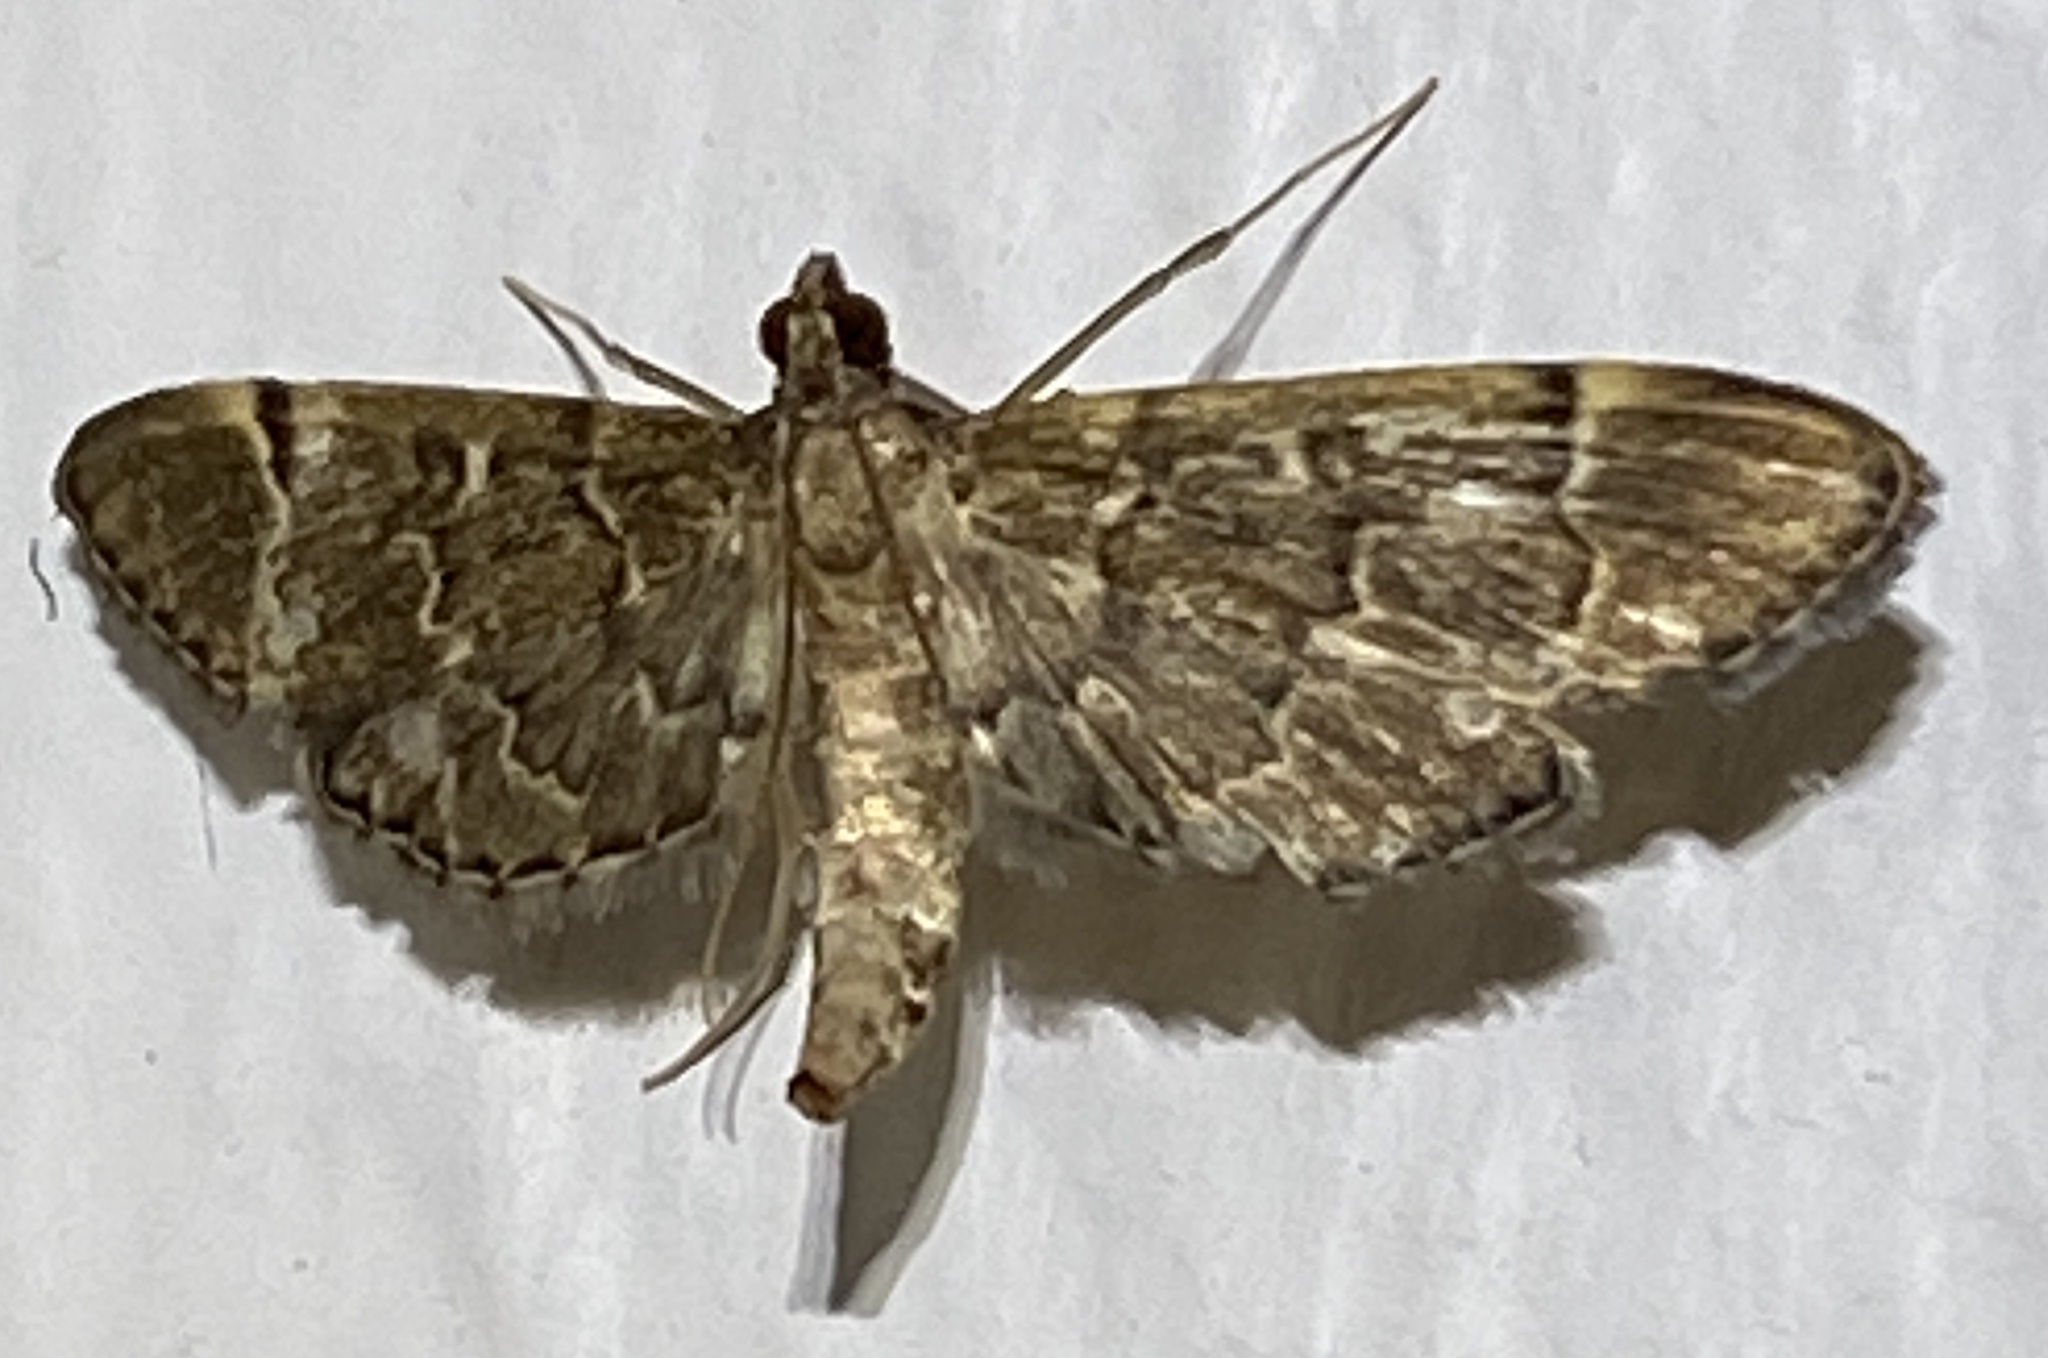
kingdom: Animalia
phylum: Arthropoda
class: Insecta
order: Lepidoptera
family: Crambidae
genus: Duponchelia
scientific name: Duponchelia lanceolalis
